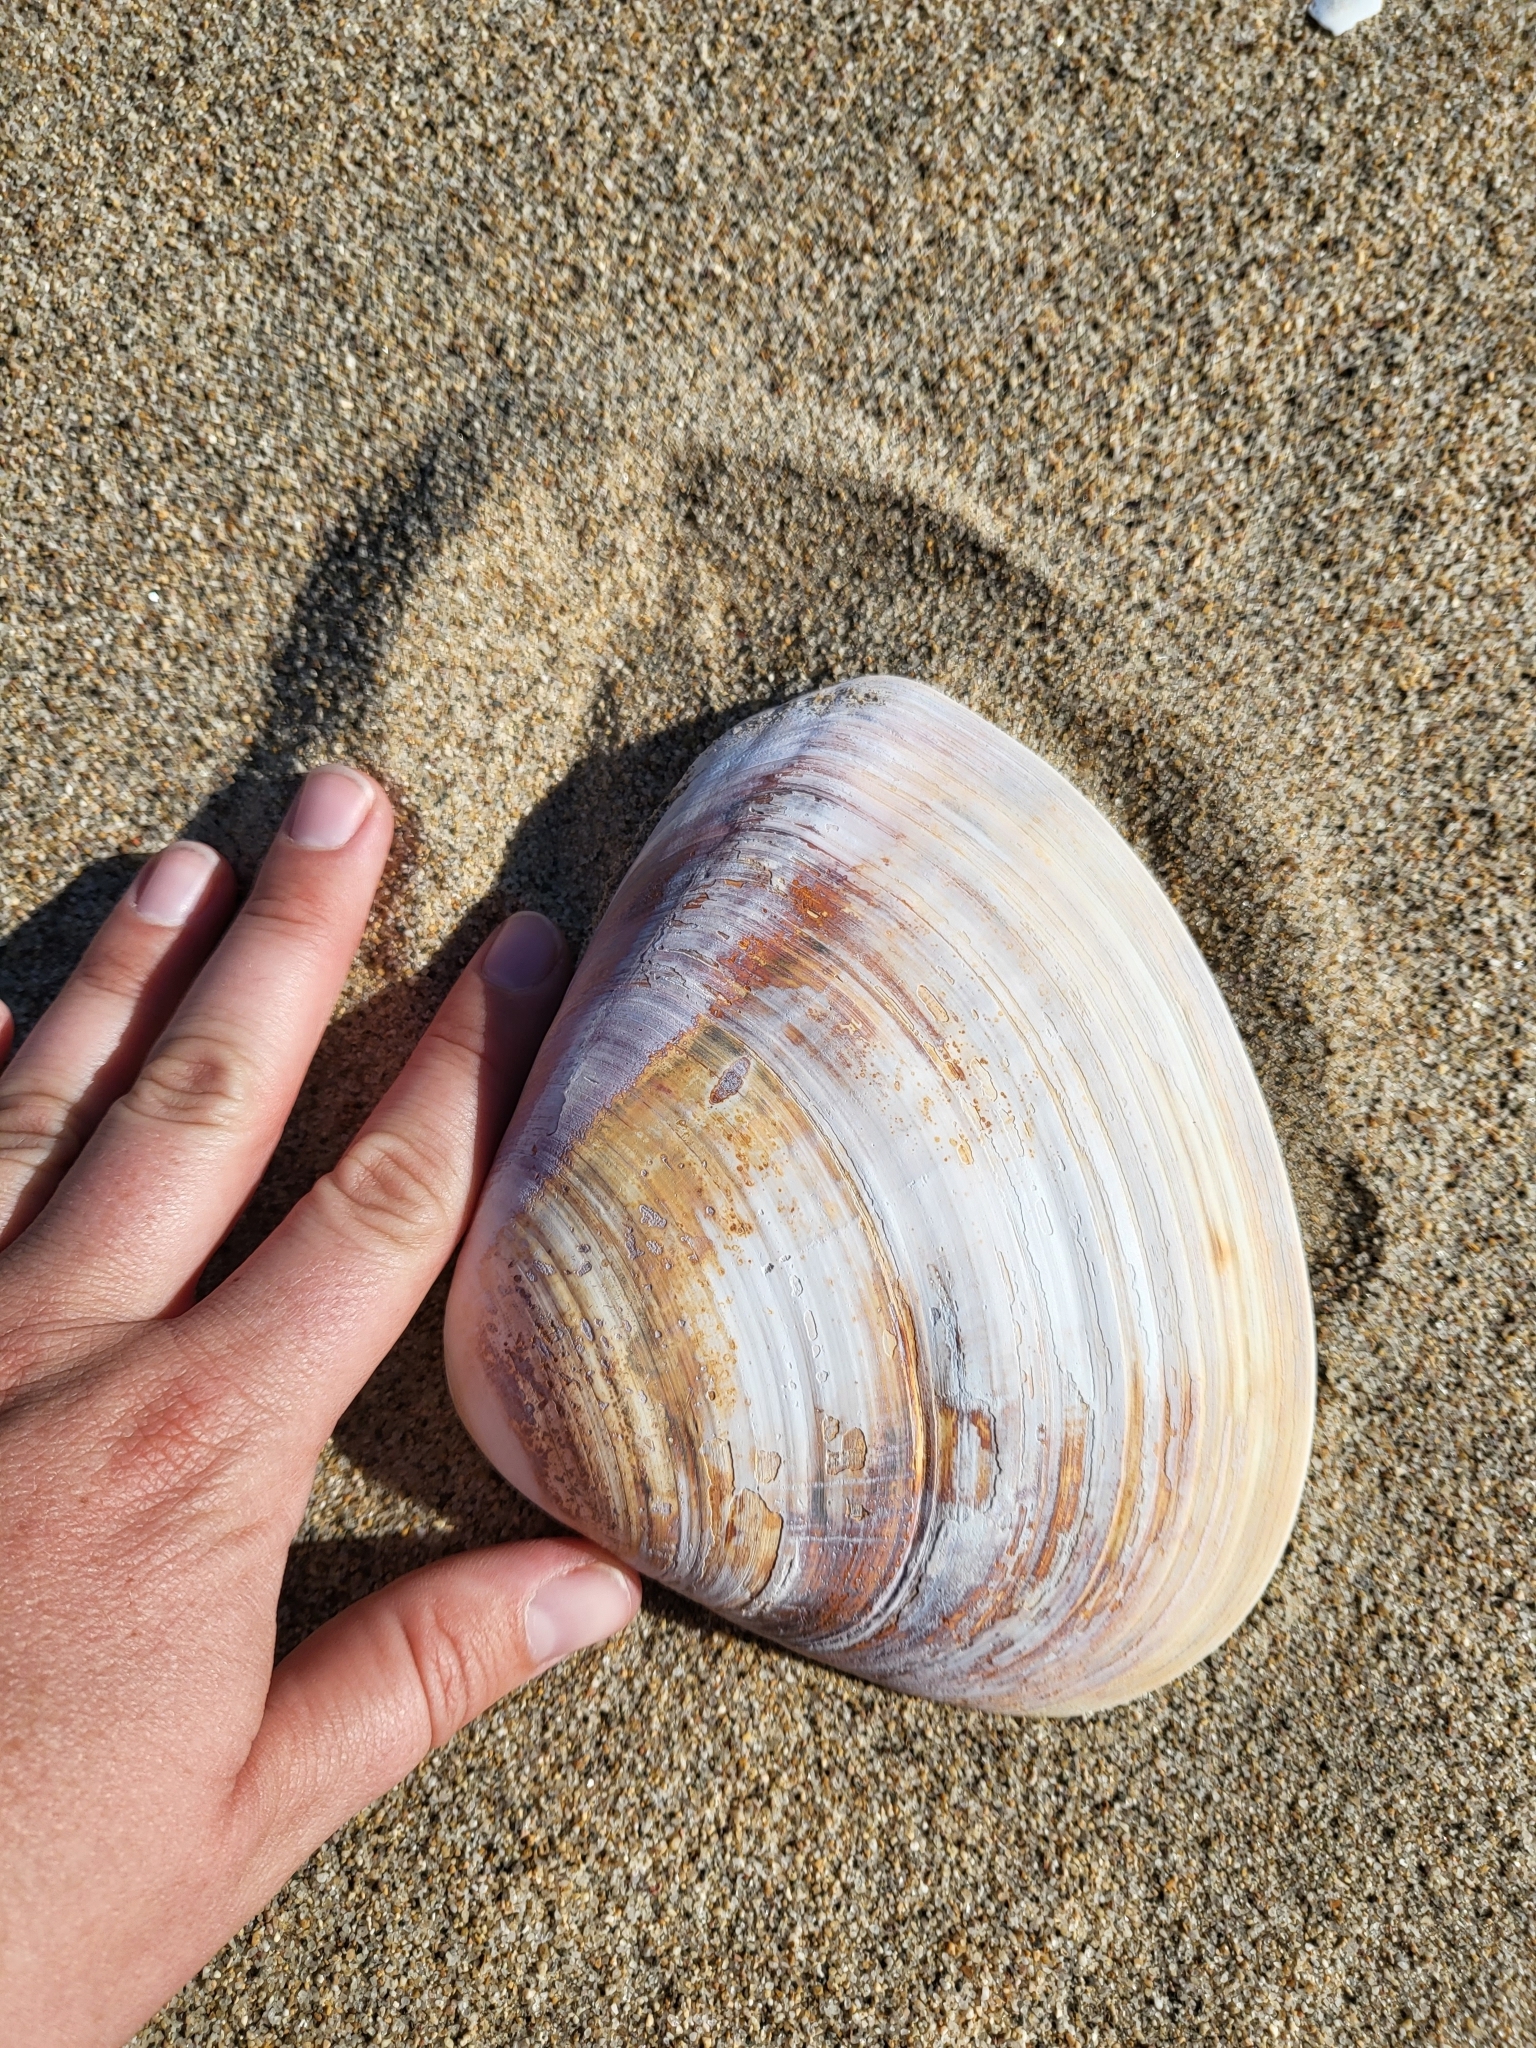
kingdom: Animalia
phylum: Mollusca
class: Bivalvia
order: Venerida
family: Veneridae
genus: Tivela
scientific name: Tivela stultorum
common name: Pismo clam
